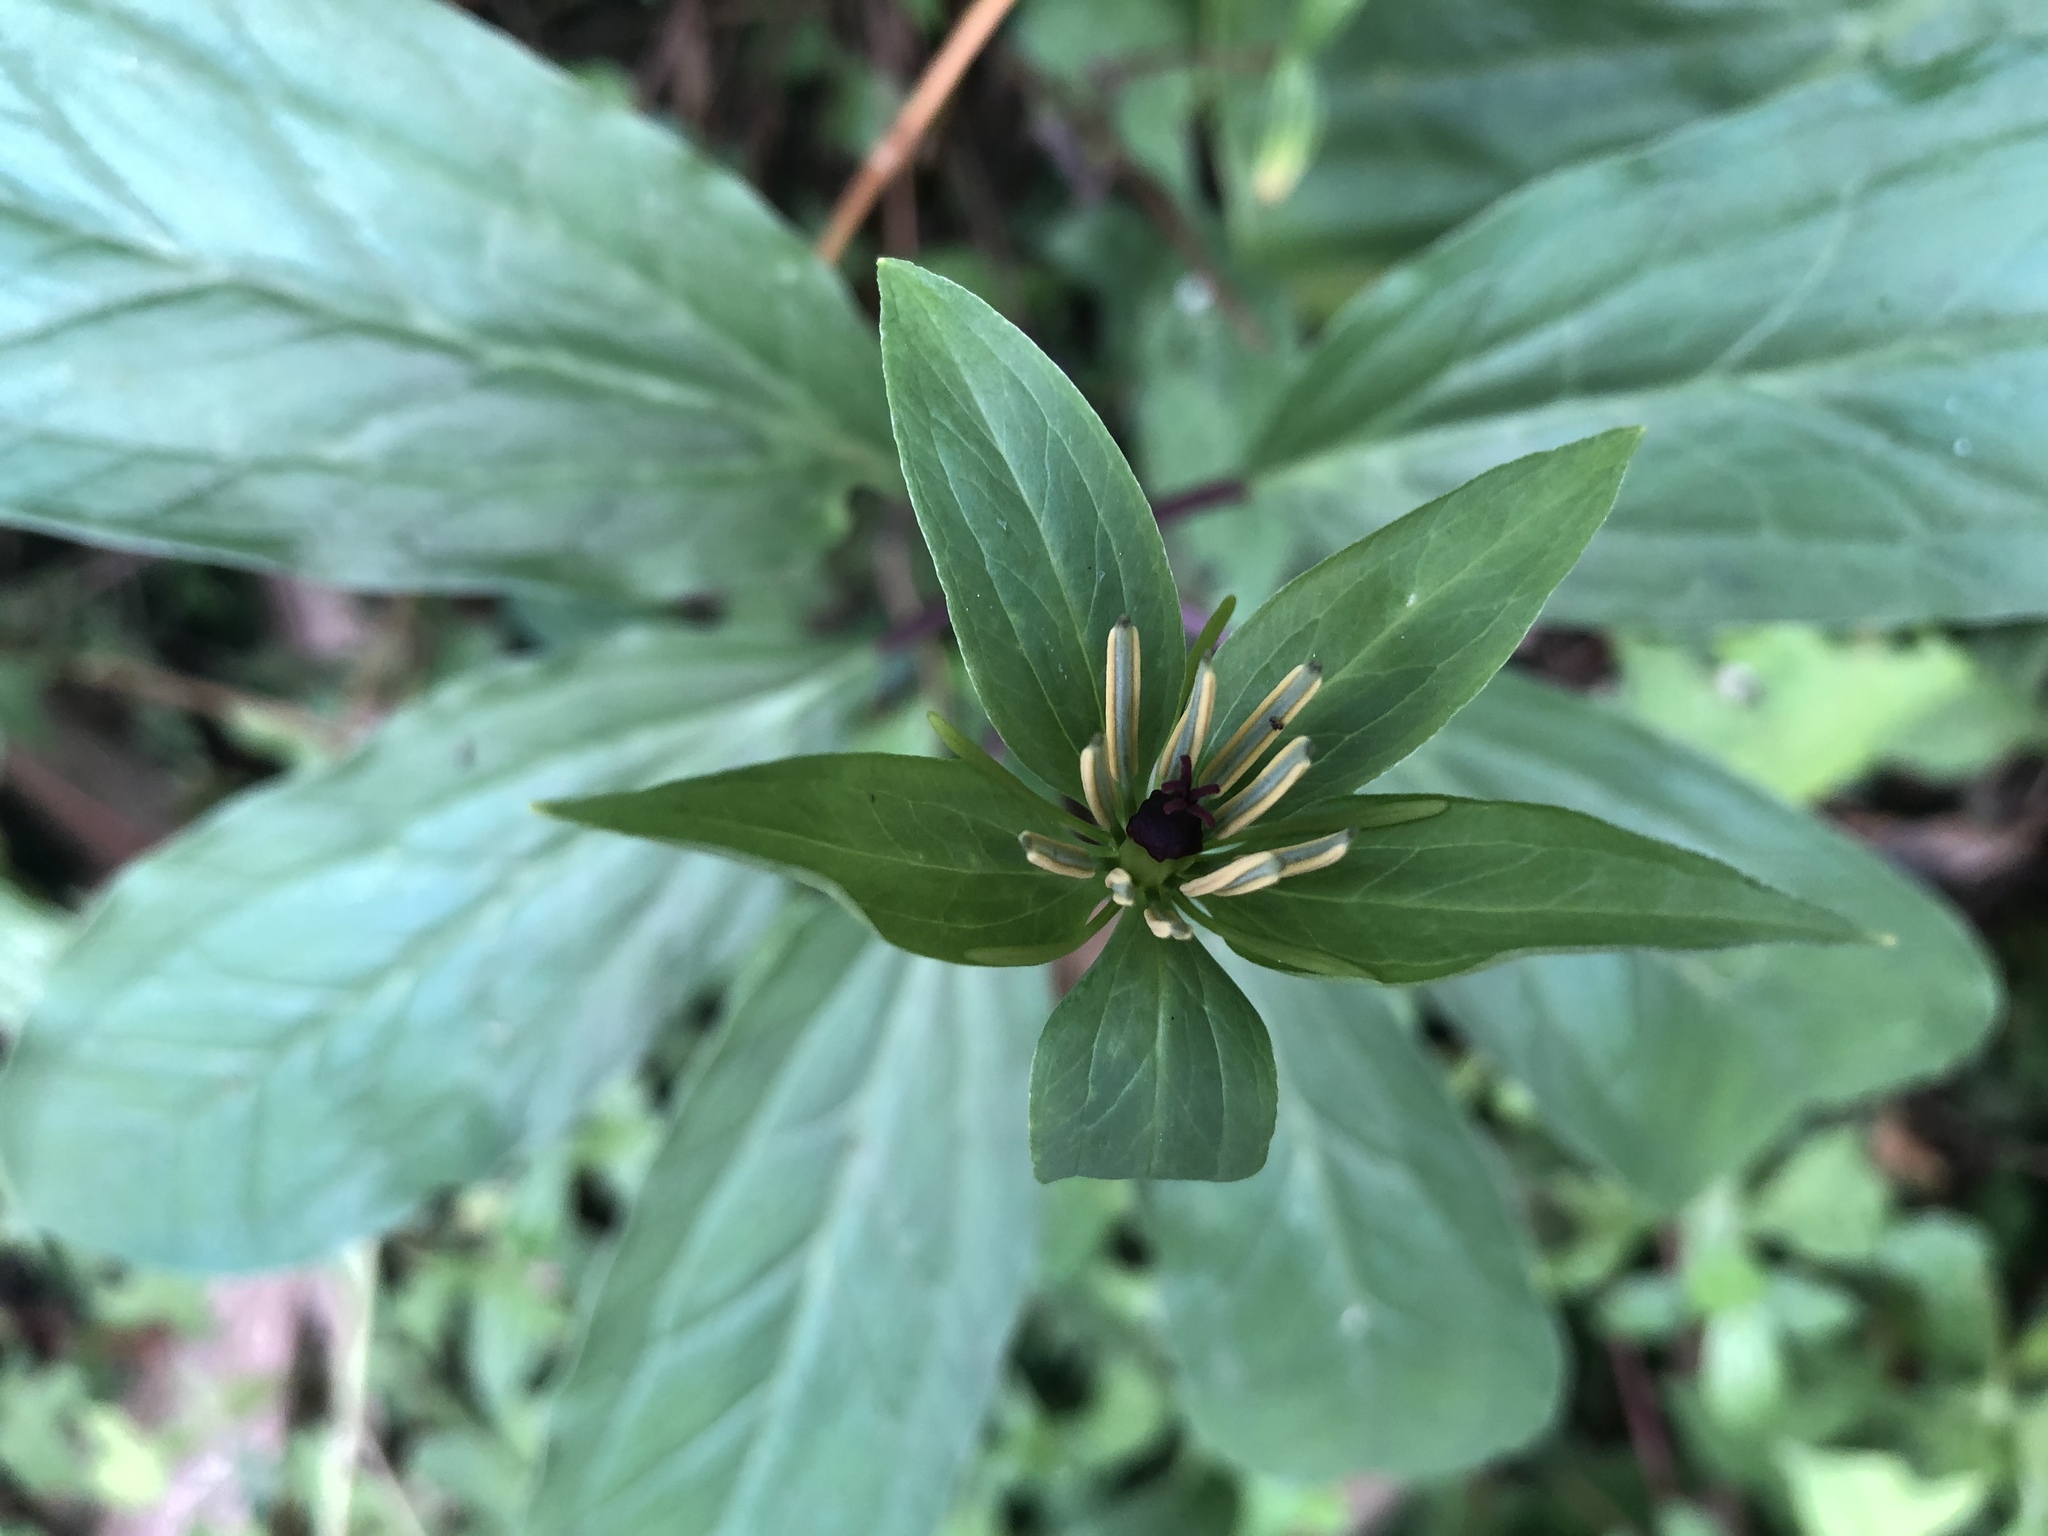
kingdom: Plantae
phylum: Tracheophyta
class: Liliopsida
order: Liliales
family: Melanthiaceae
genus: Paris
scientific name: Paris polyphylla
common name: Love apple
